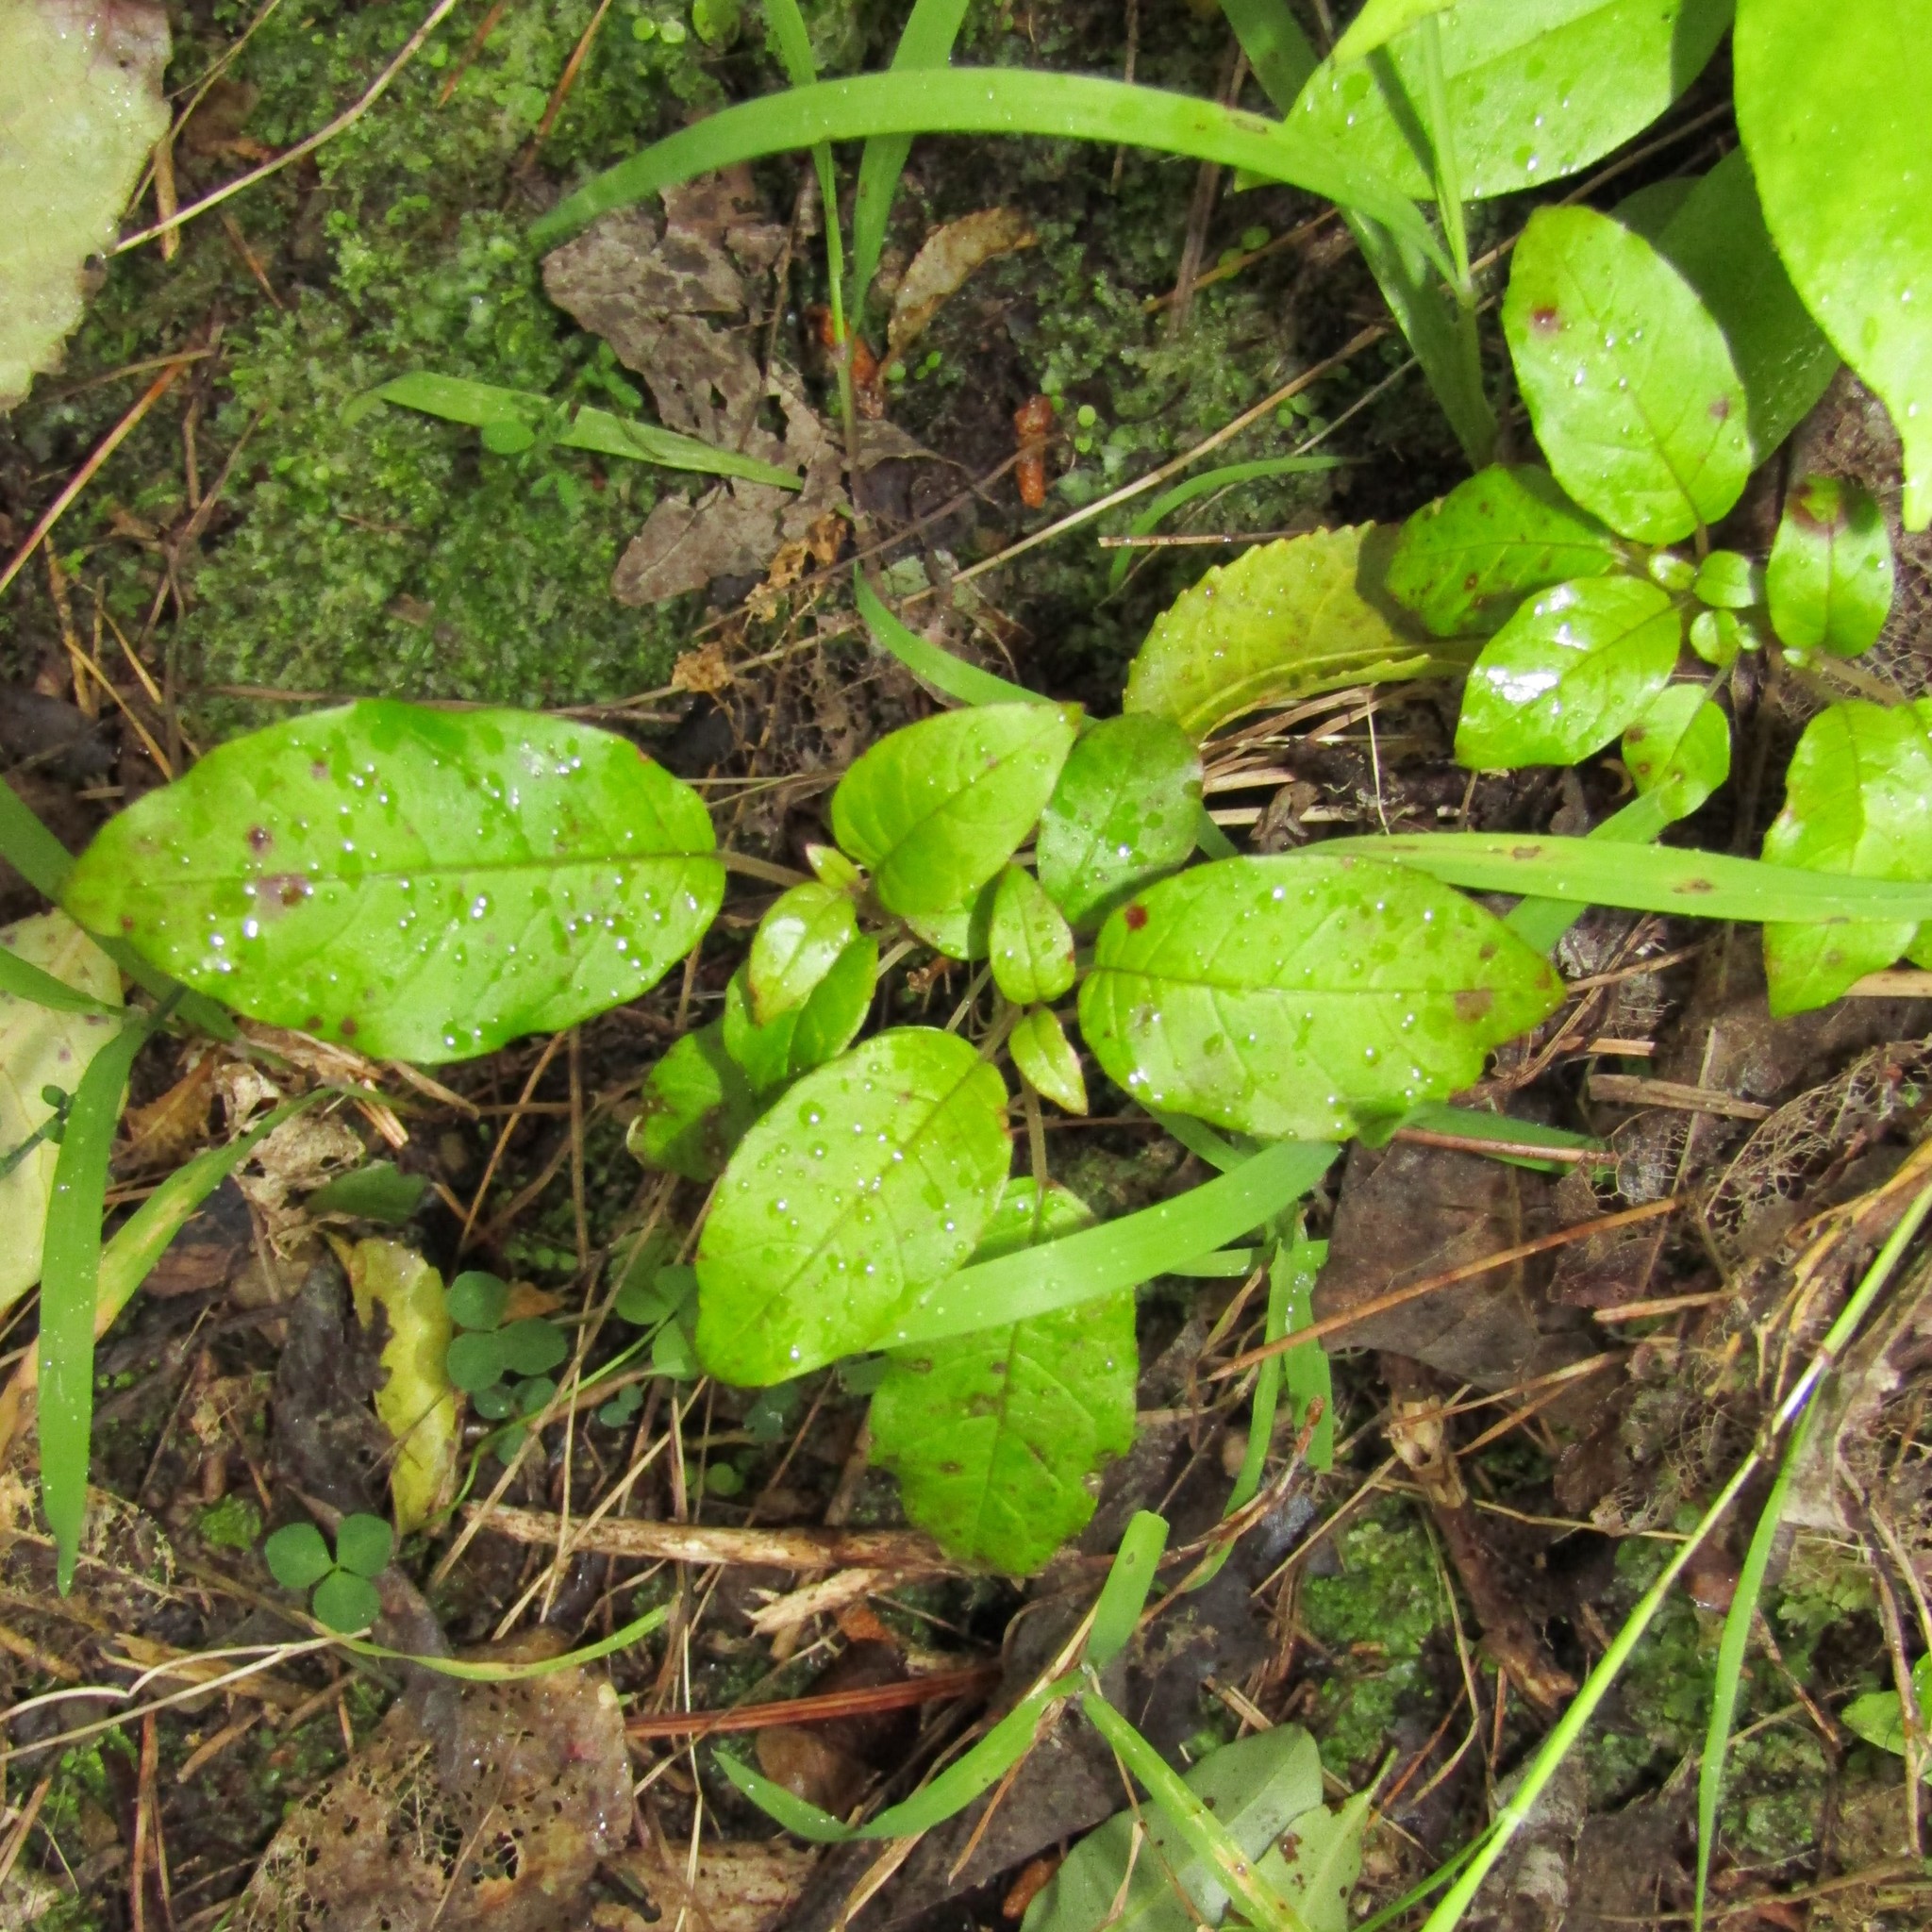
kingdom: Plantae
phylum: Tracheophyta
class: Magnoliopsida
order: Myrtales
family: Onagraceae
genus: Fuchsia
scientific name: Fuchsia excorticata
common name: Tree fuchsia
